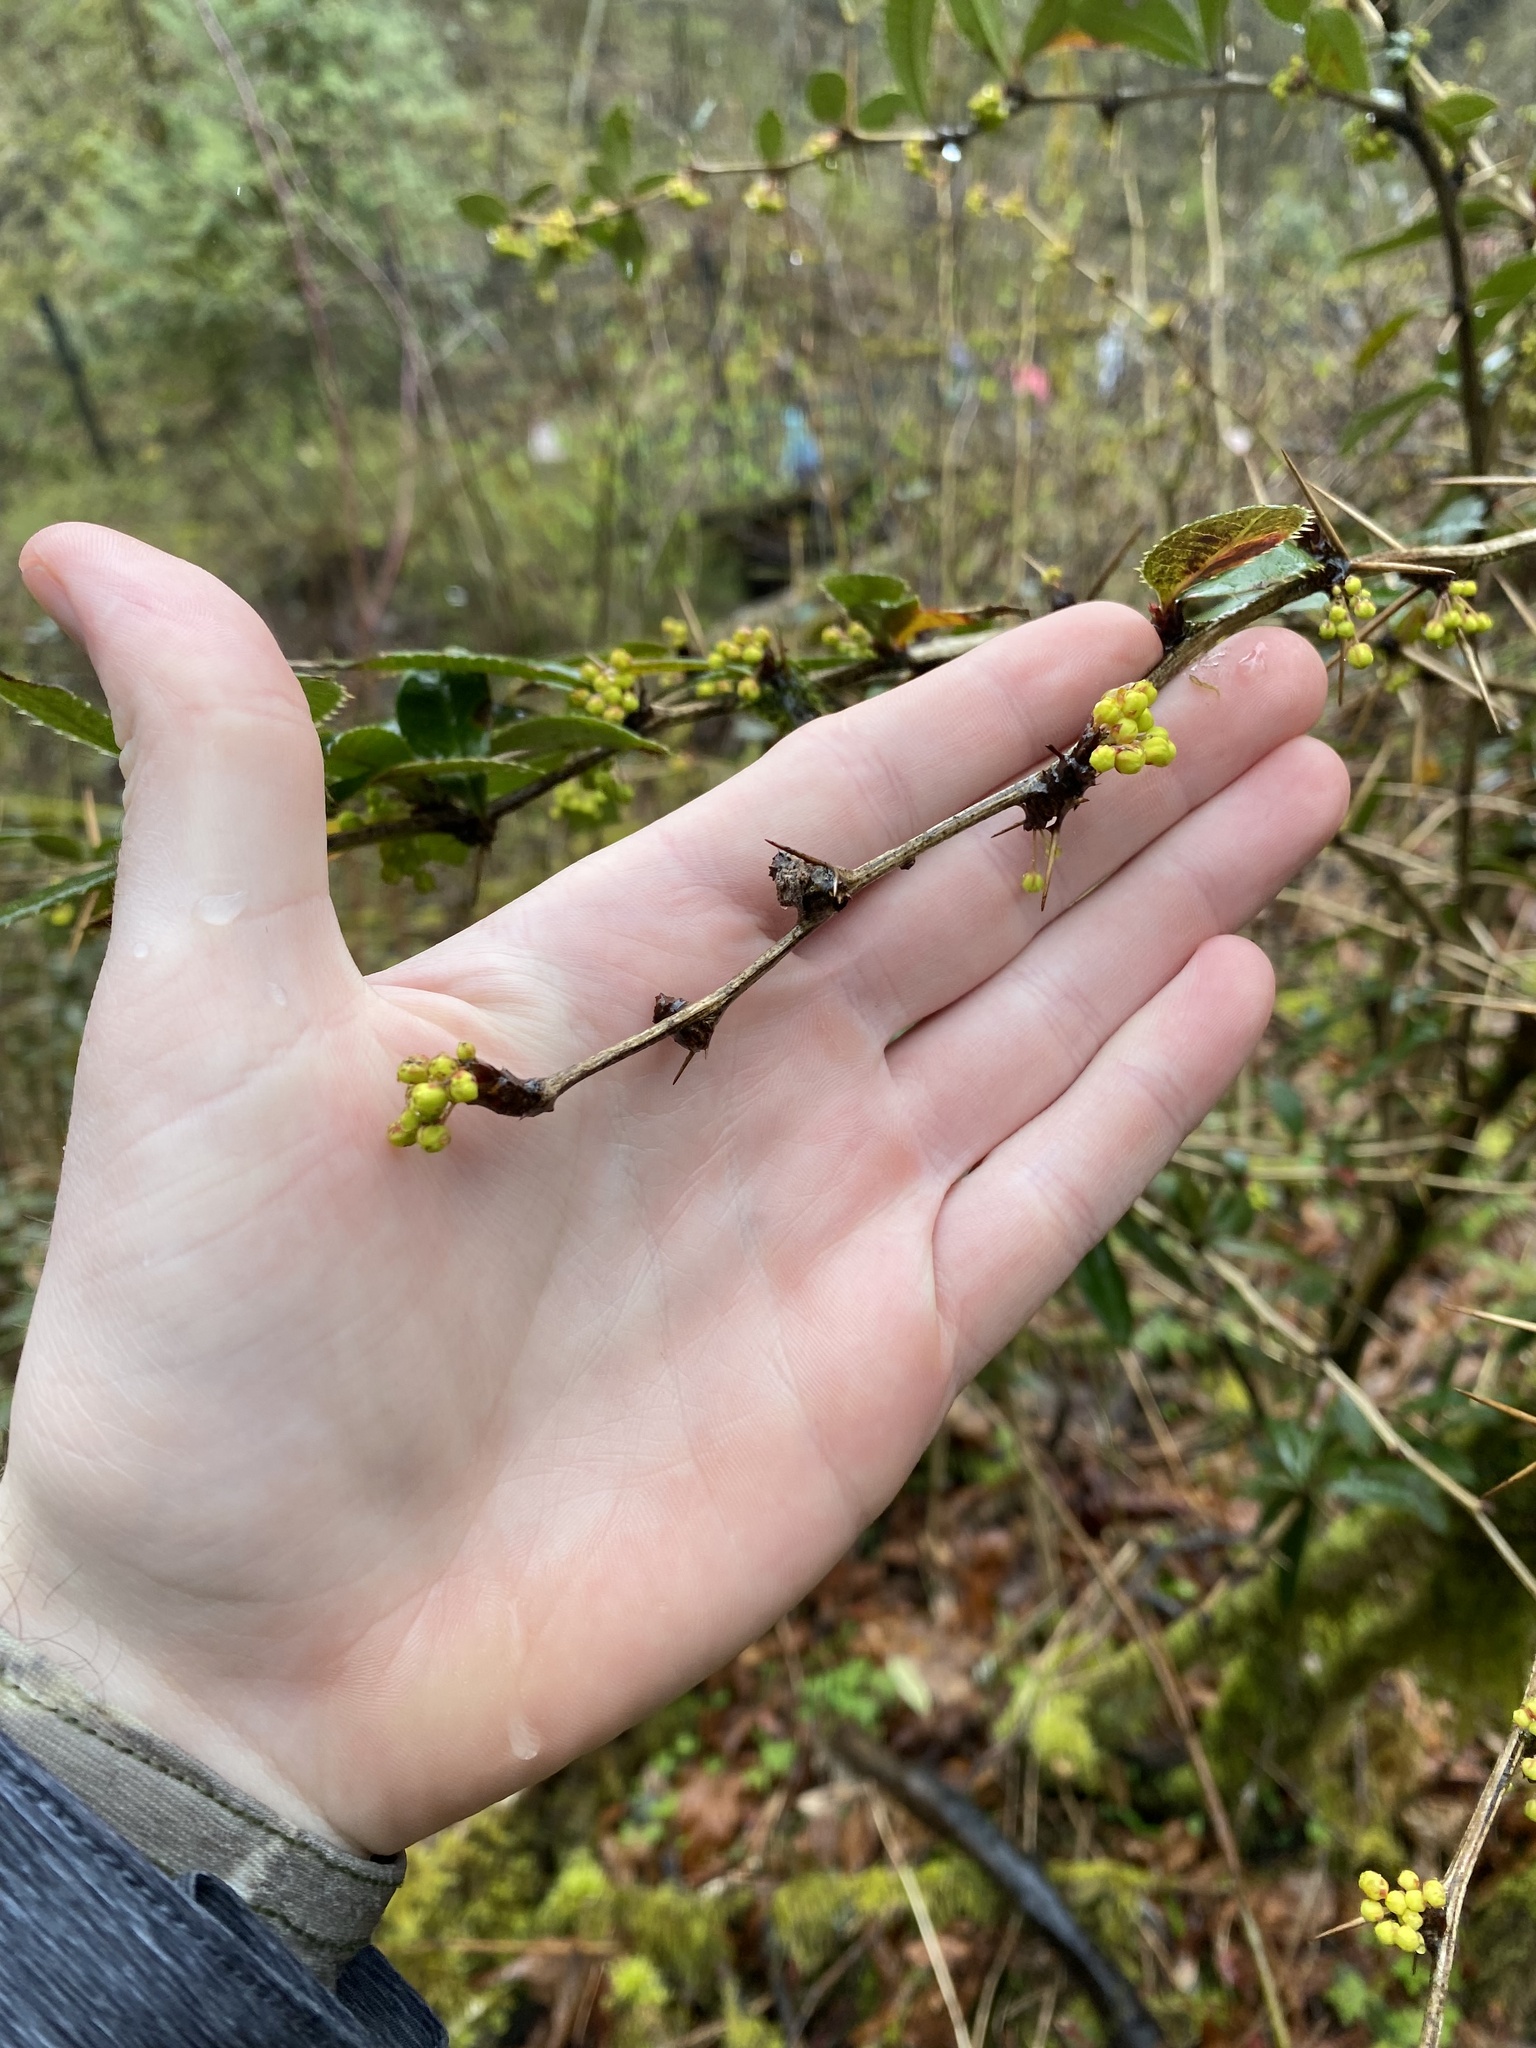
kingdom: Plantae
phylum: Tracheophyta
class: Magnoliopsida
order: Ranunculales
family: Berberidaceae
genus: Berberis
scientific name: Berberis julianae
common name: Wintergreen barberry
